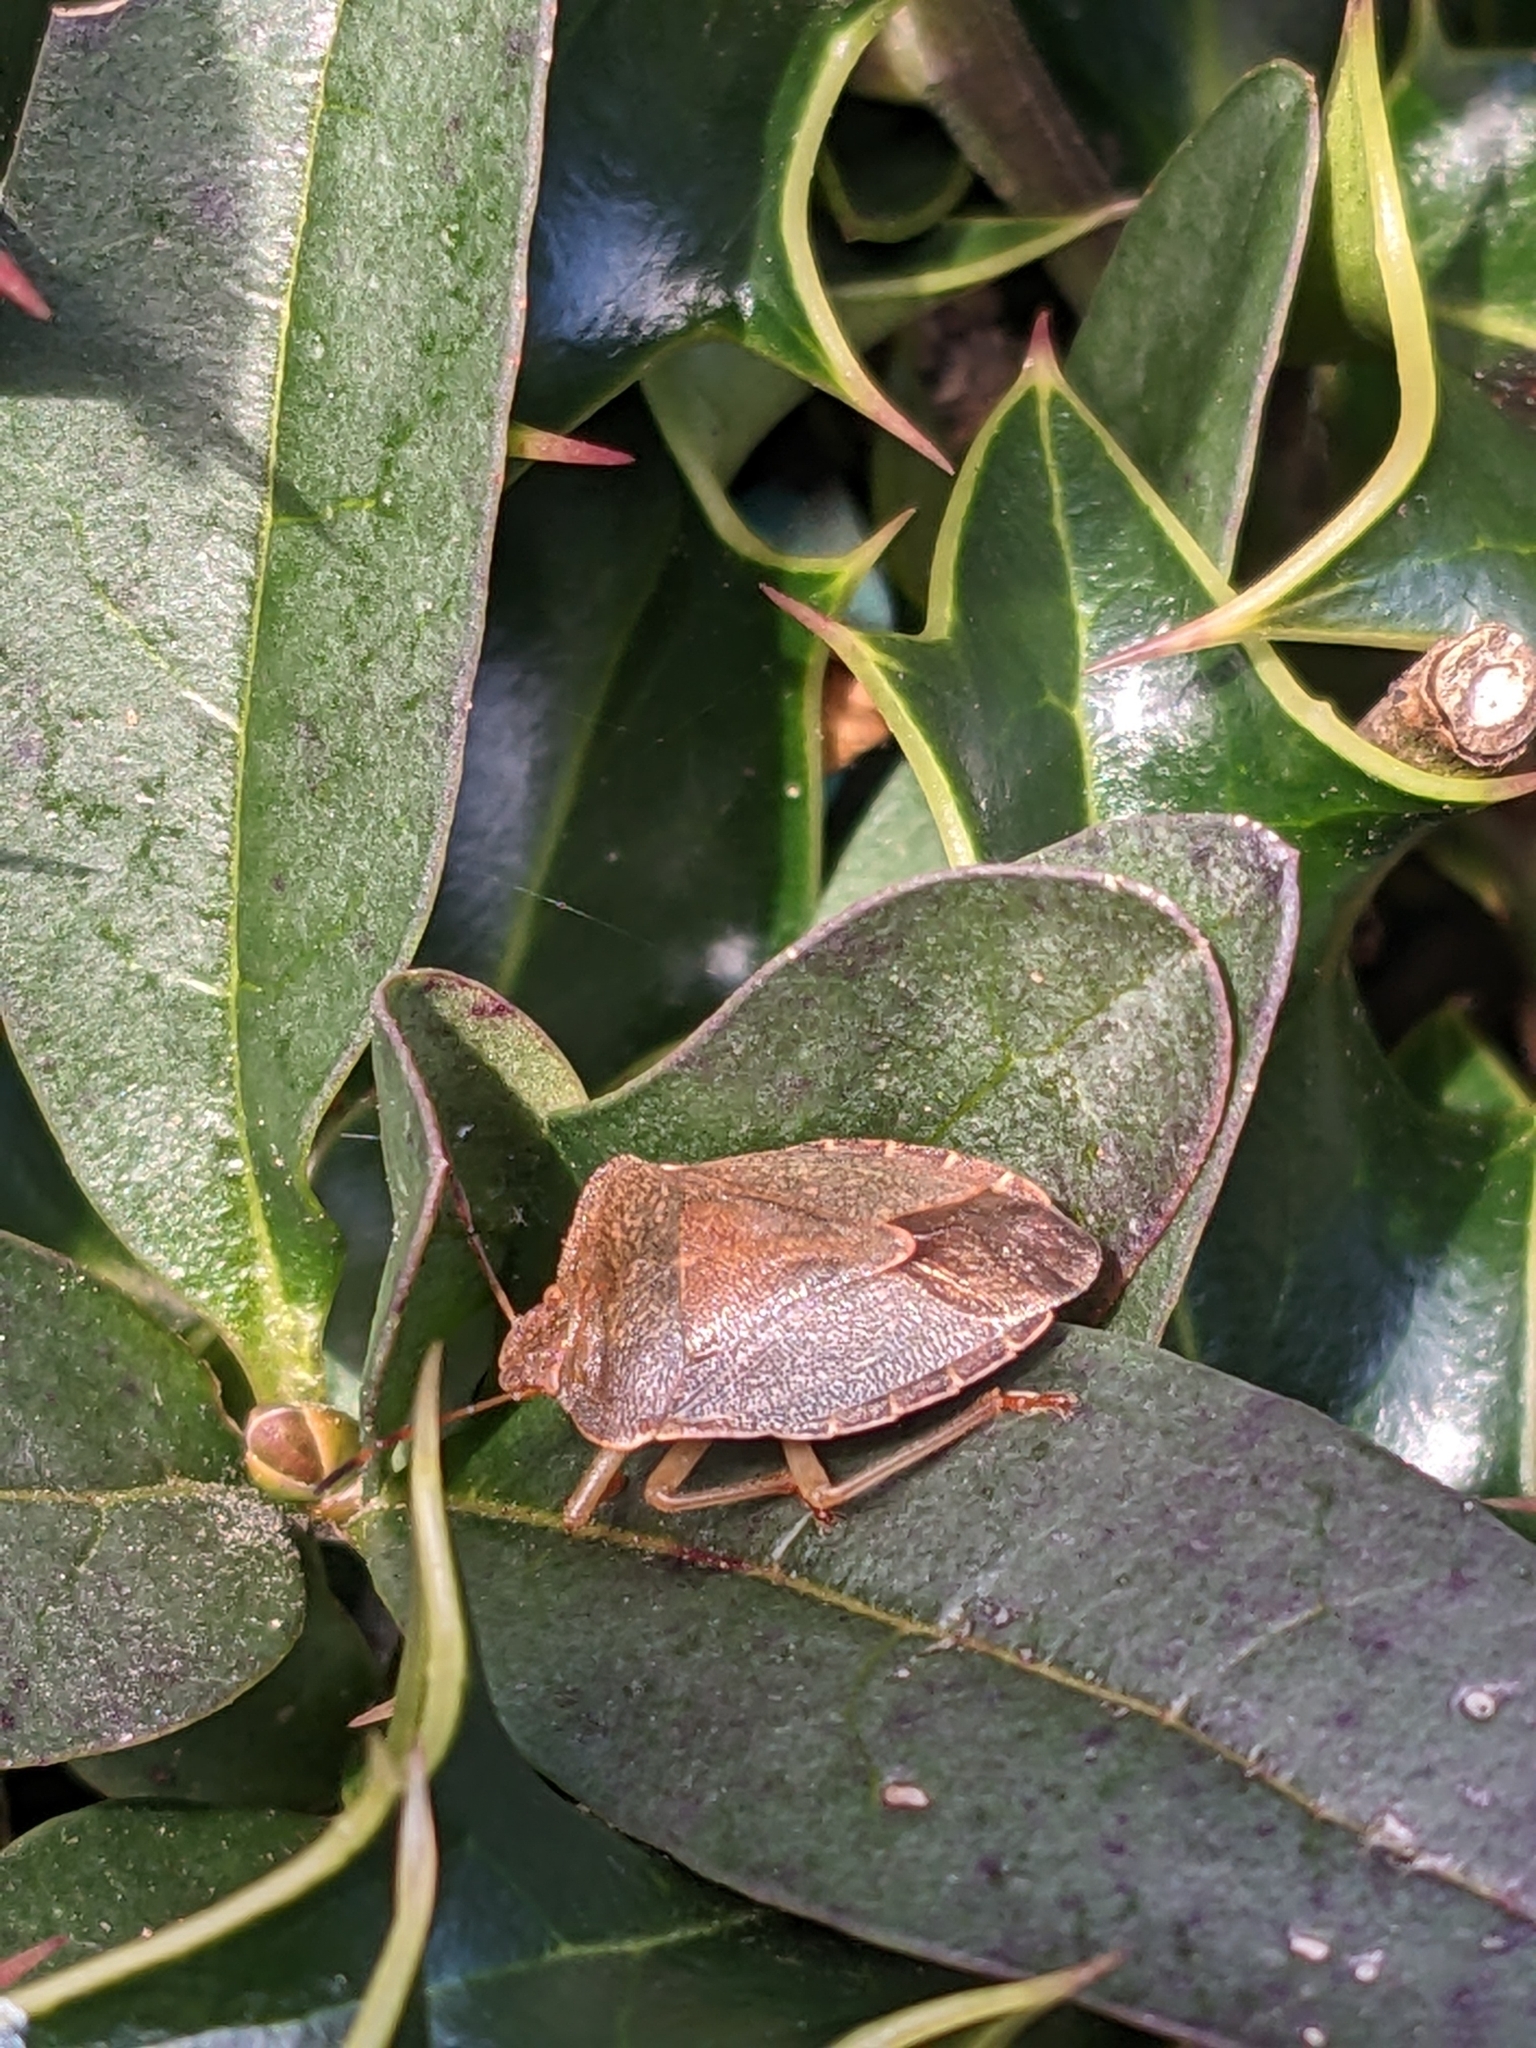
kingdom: Animalia
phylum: Arthropoda
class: Insecta
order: Hemiptera
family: Pentatomidae
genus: Palomena
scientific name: Palomena prasina
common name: Green shieldbug
